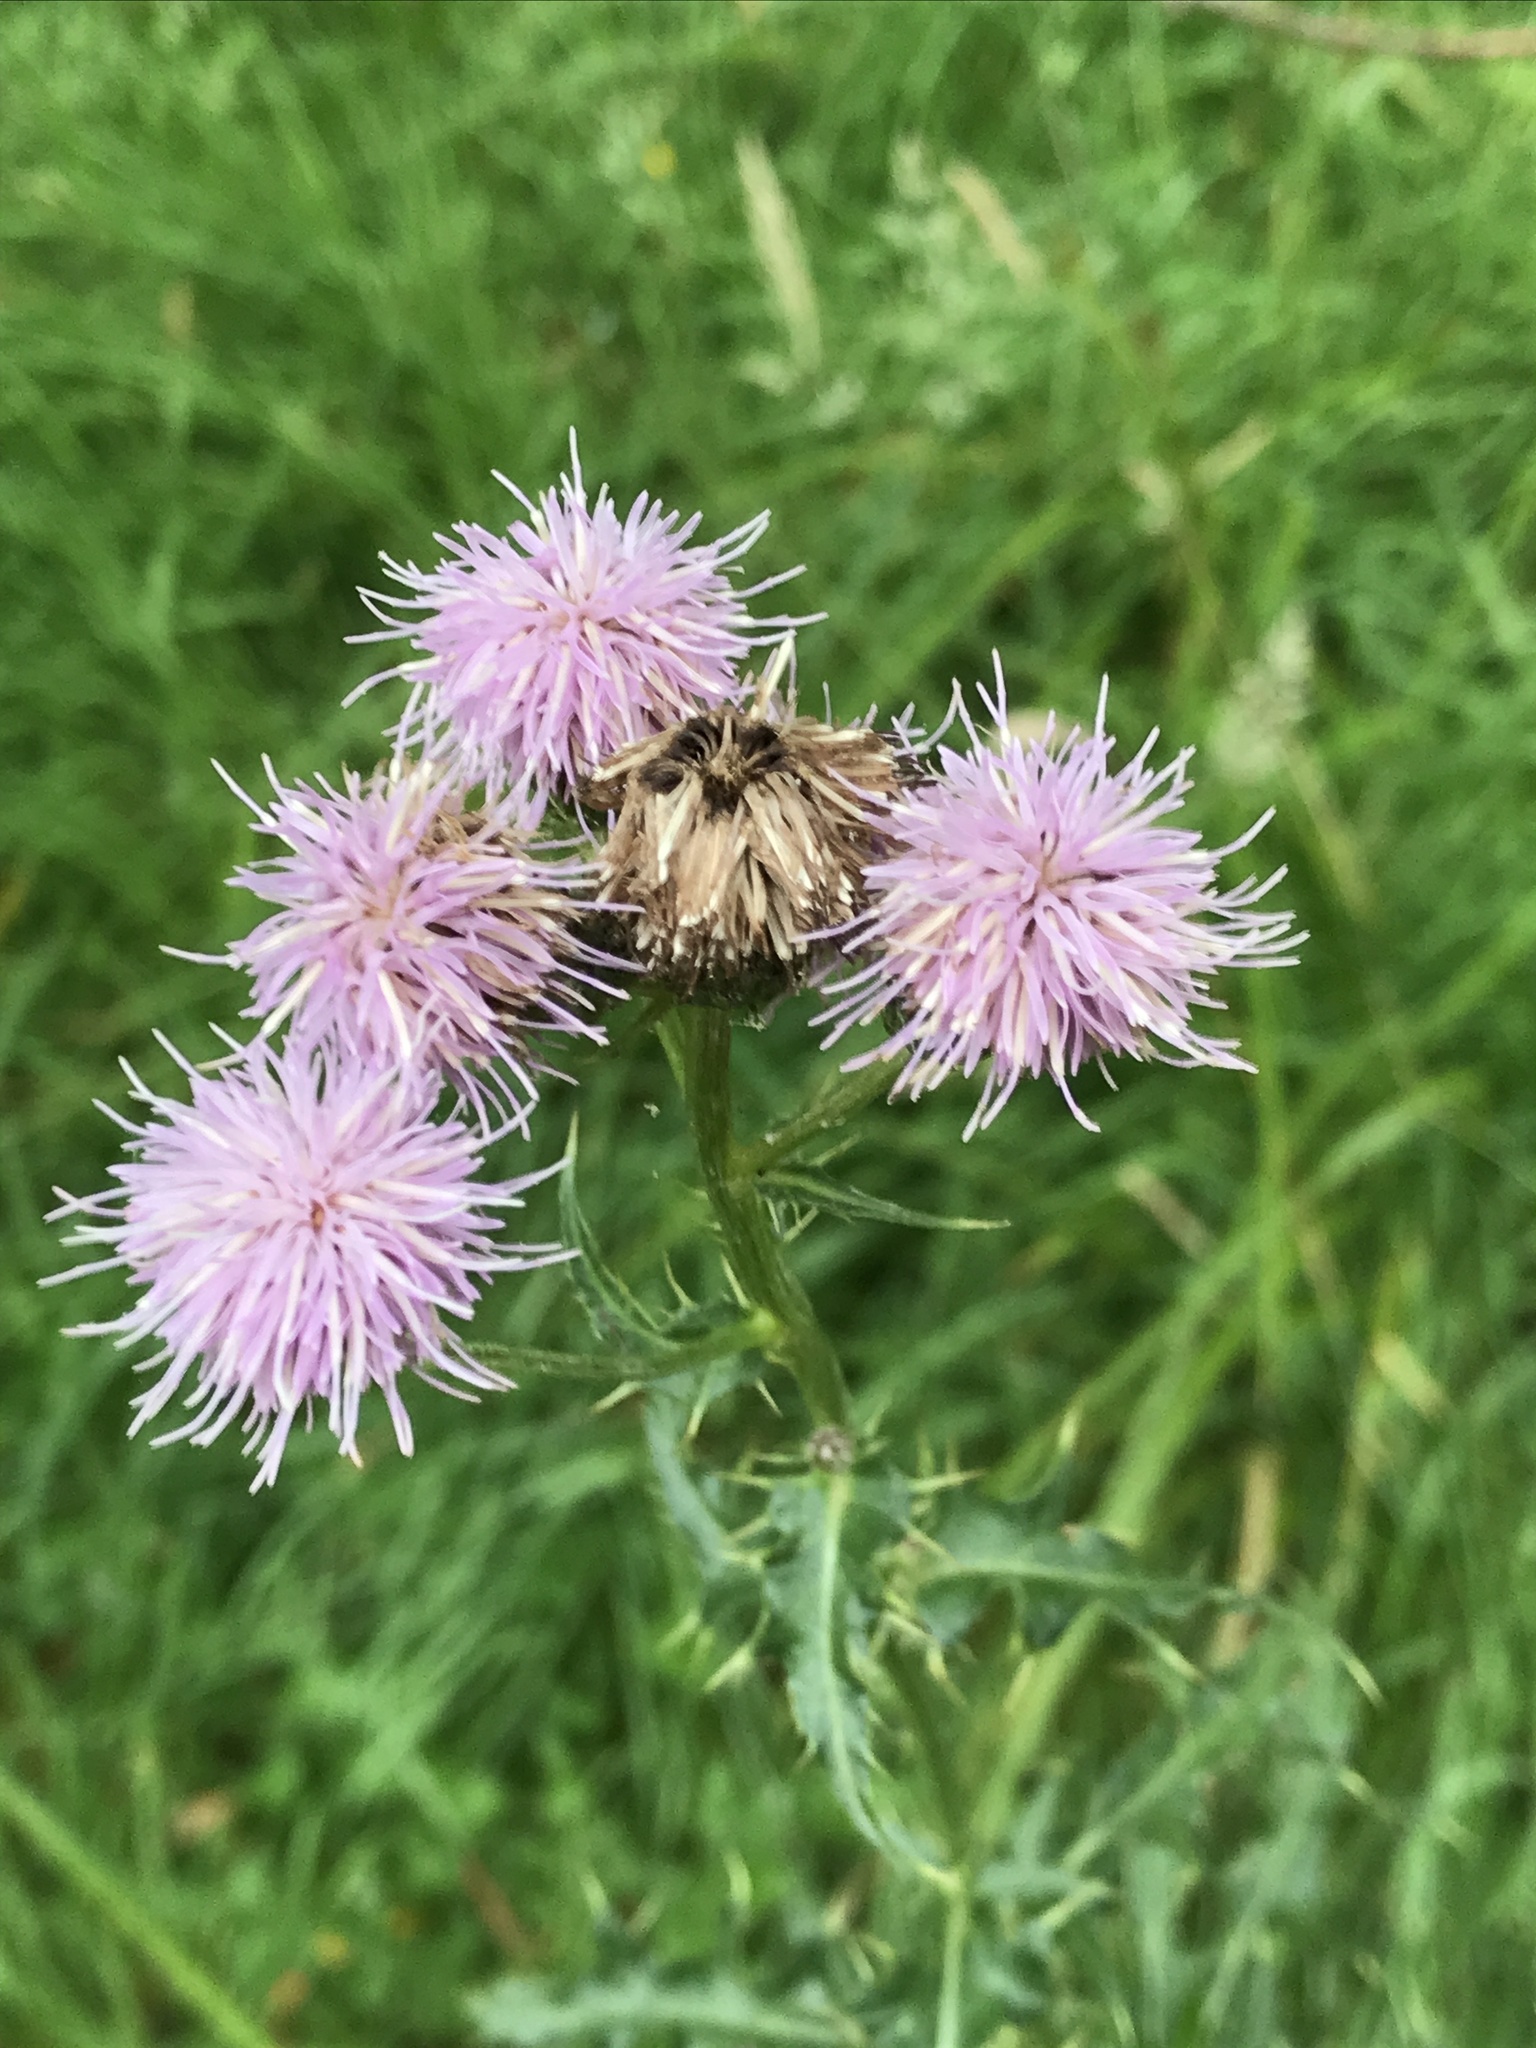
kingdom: Plantae
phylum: Tracheophyta
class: Magnoliopsida
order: Asterales
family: Asteraceae
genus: Cirsium
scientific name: Cirsium arvense
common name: Creeping thistle
